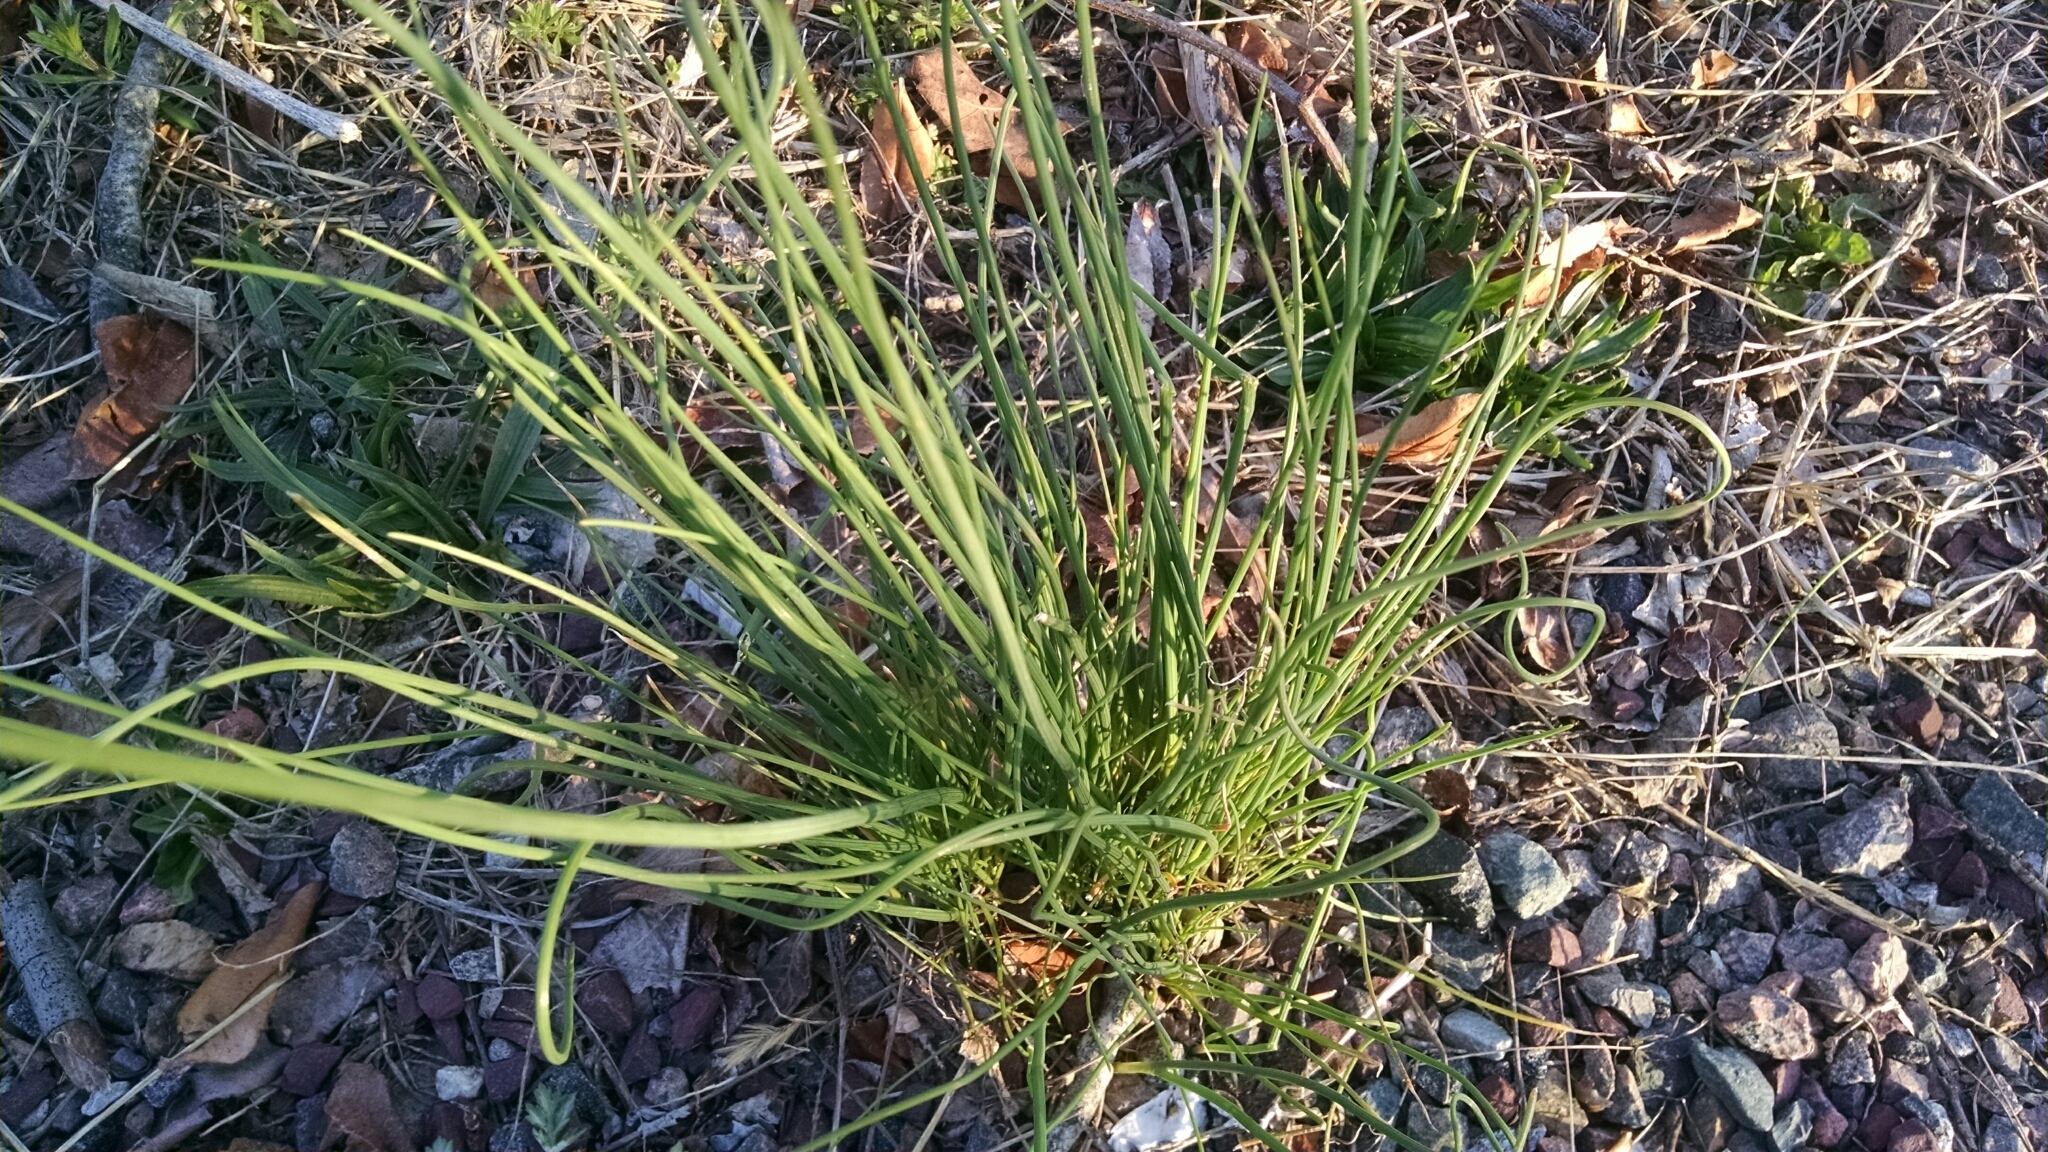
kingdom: Plantae
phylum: Tracheophyta
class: Liliopsida
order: Asparagales
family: Amaryllidaceae
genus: Allium
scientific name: Allium vineale
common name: Crow garlic
